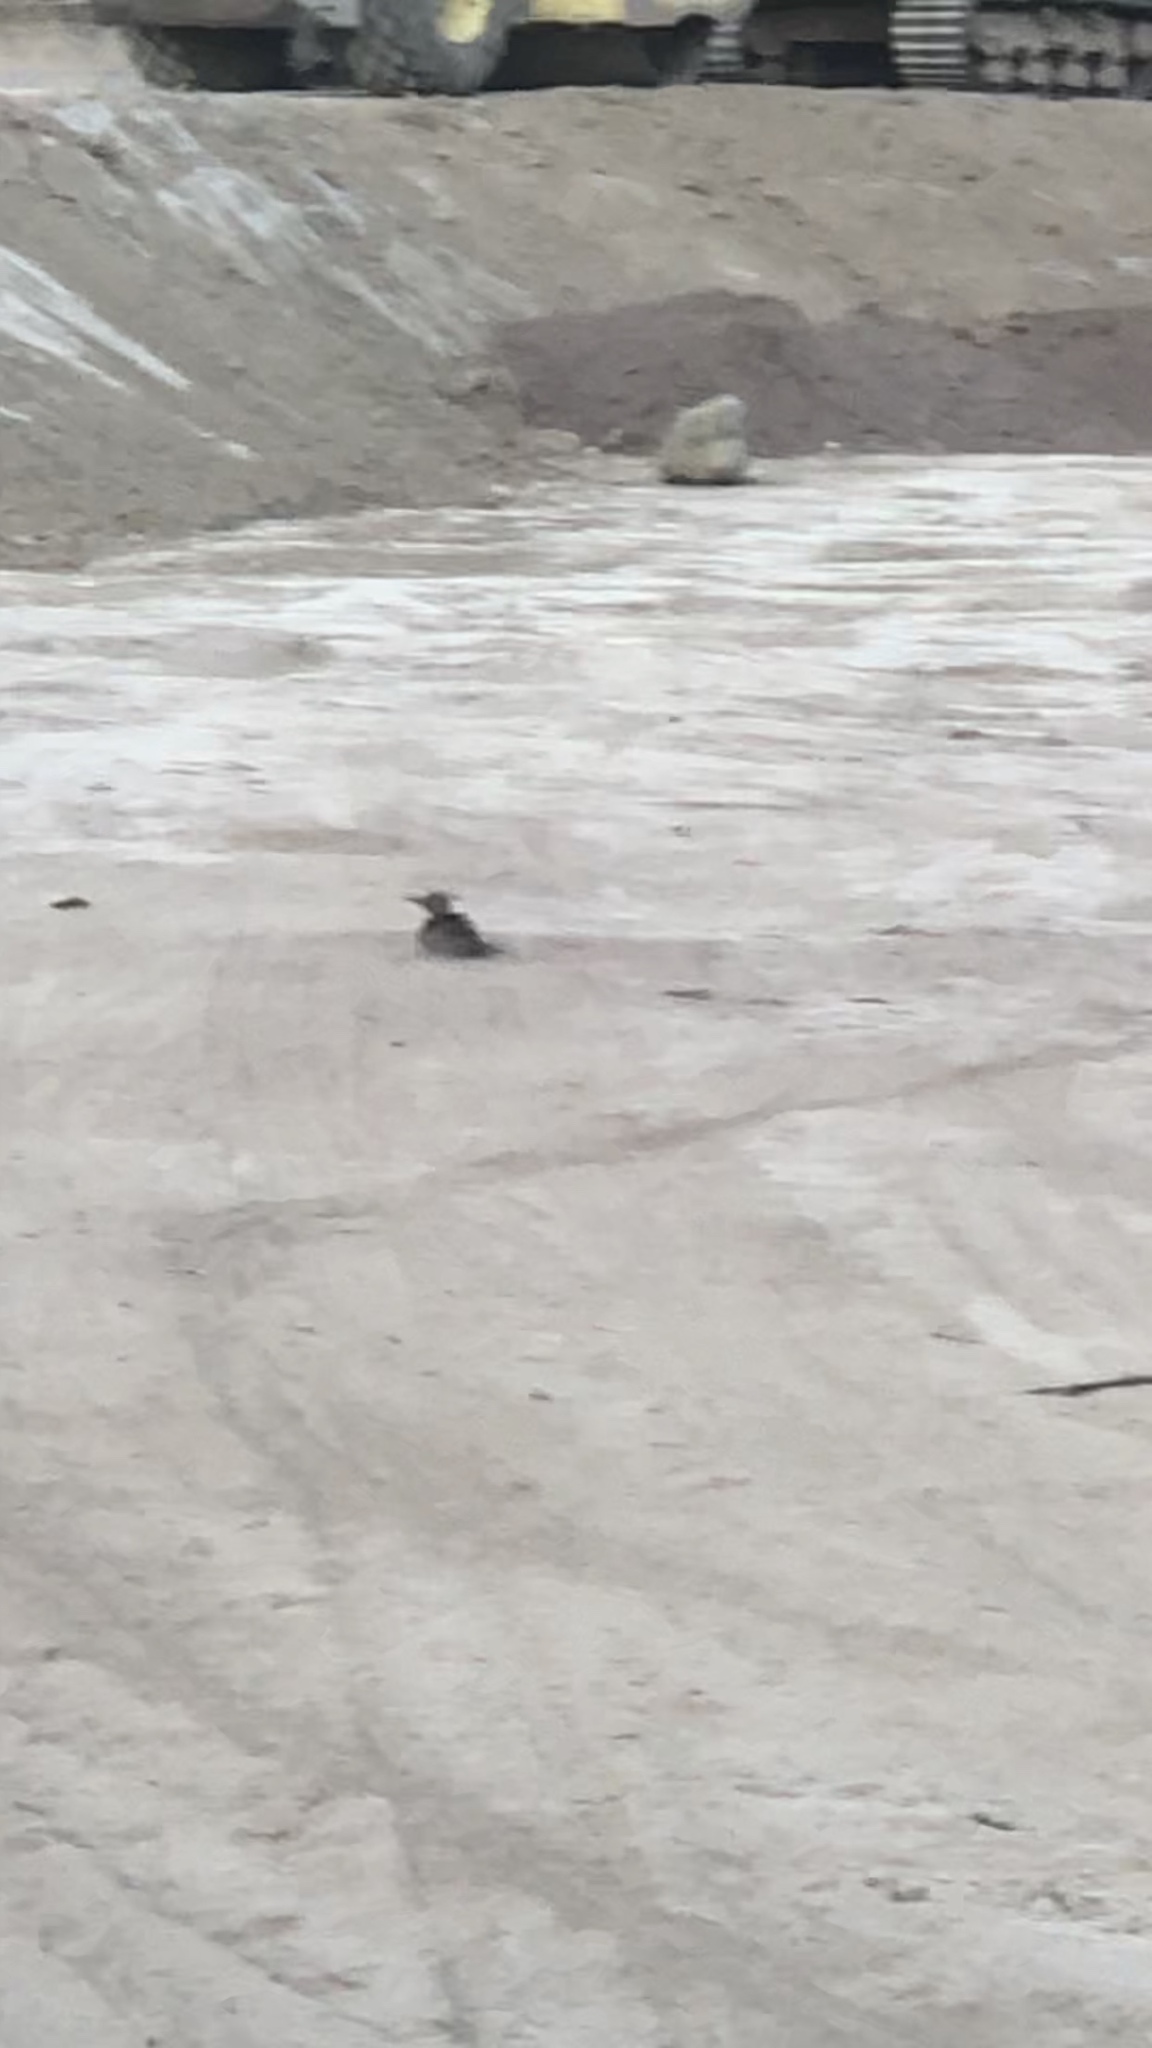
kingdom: Animalia
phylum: Chordata
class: Aves
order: Piciformes
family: Picidae
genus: Colaptes
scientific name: Colaptes auratus
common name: Northern flicker
